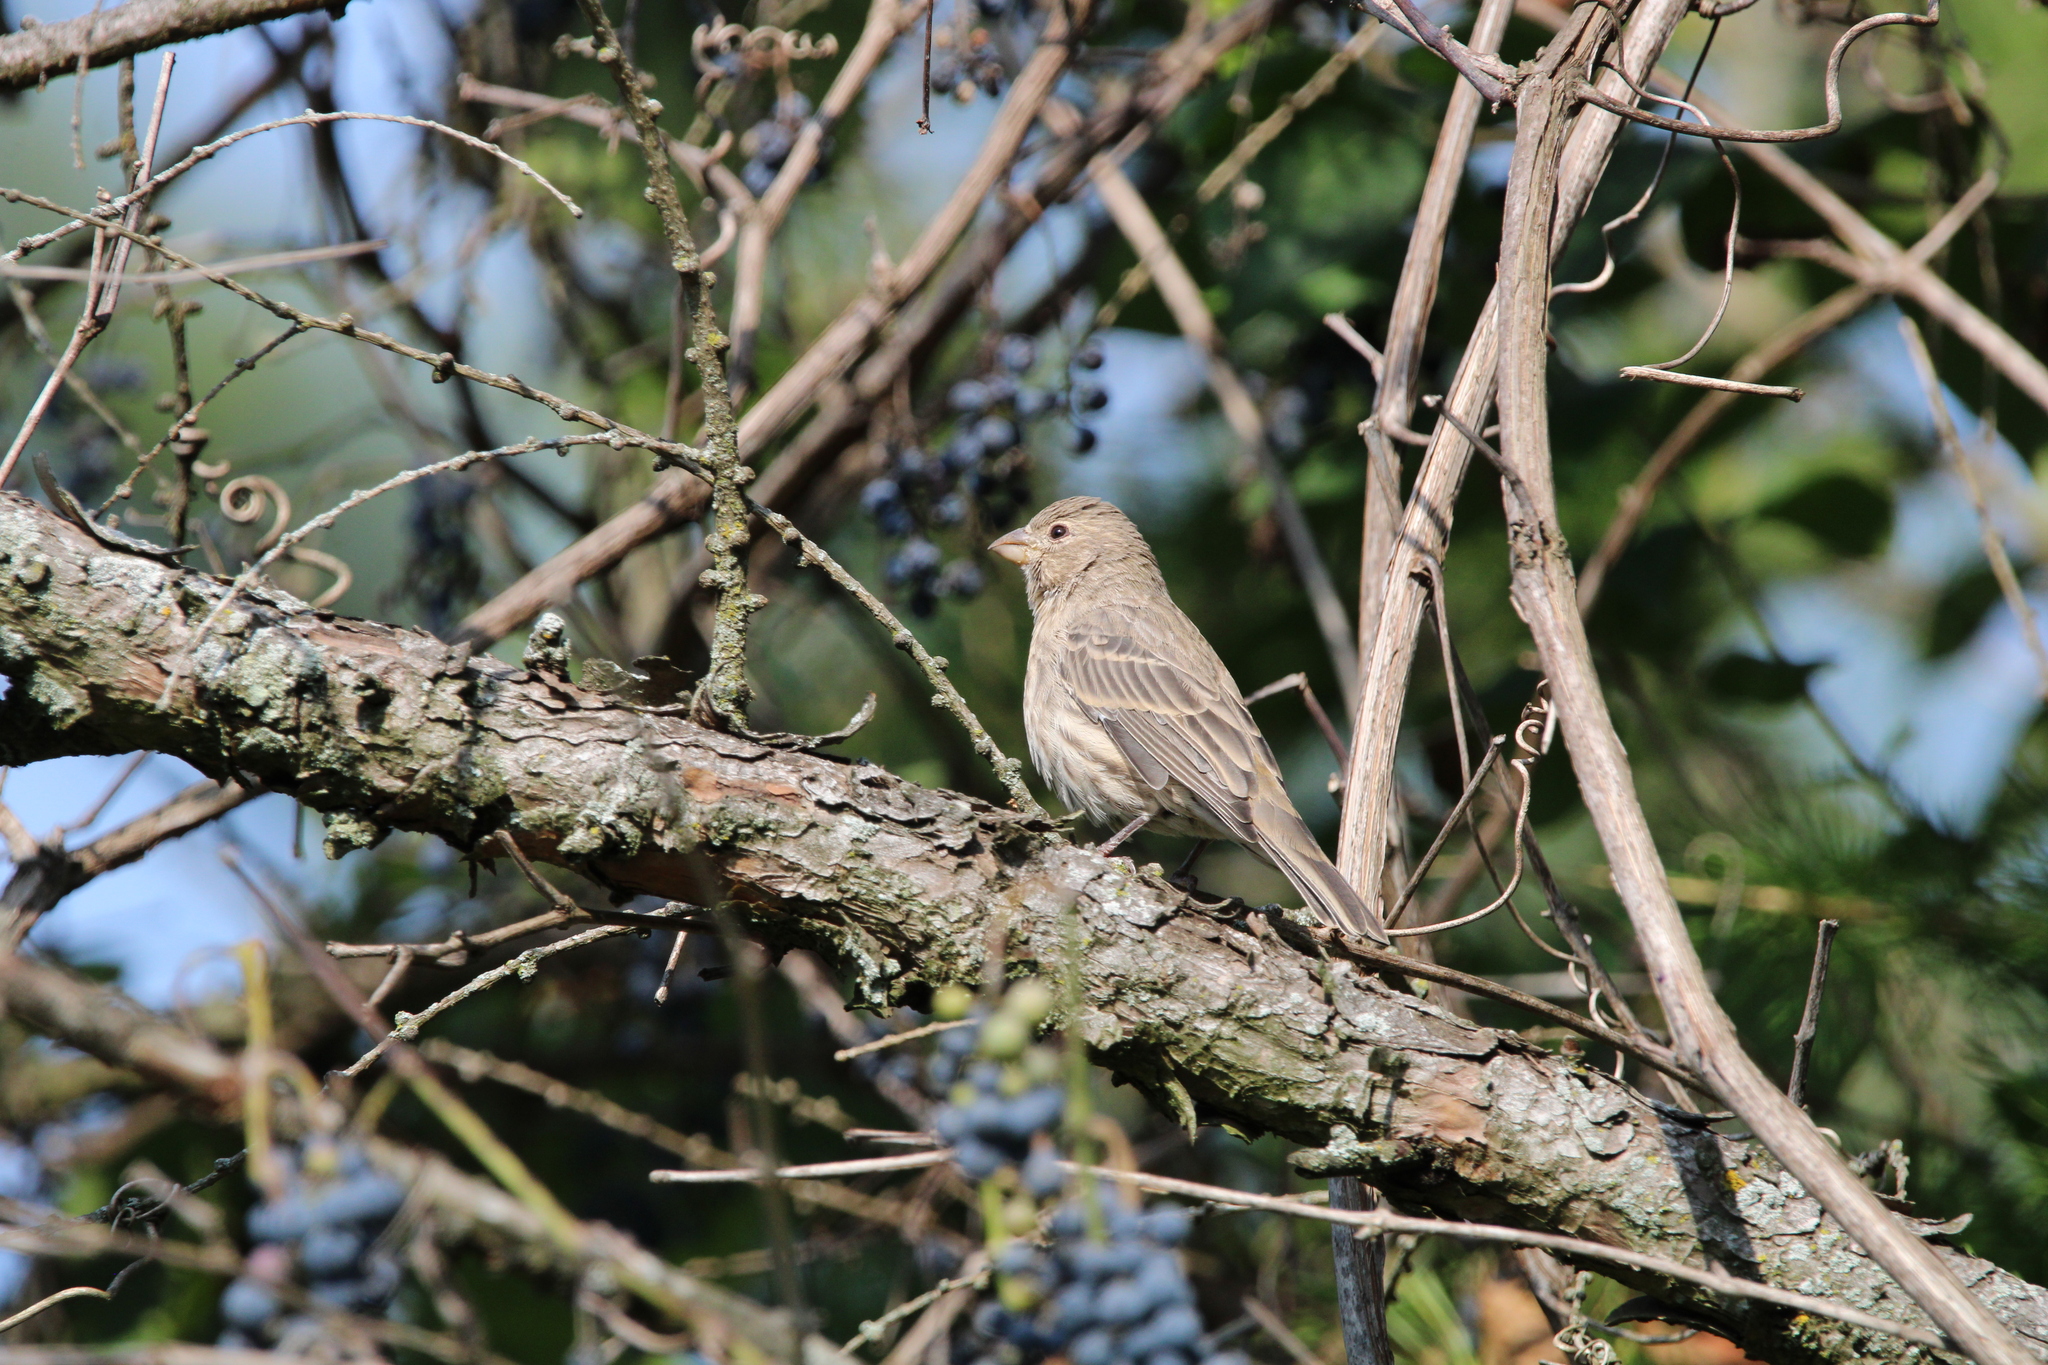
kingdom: Animalia
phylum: Chordata
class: Aves
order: Passeriformes
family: Fringillidae
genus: Haemorhous
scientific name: Haemorhous mexicanus
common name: House finch
